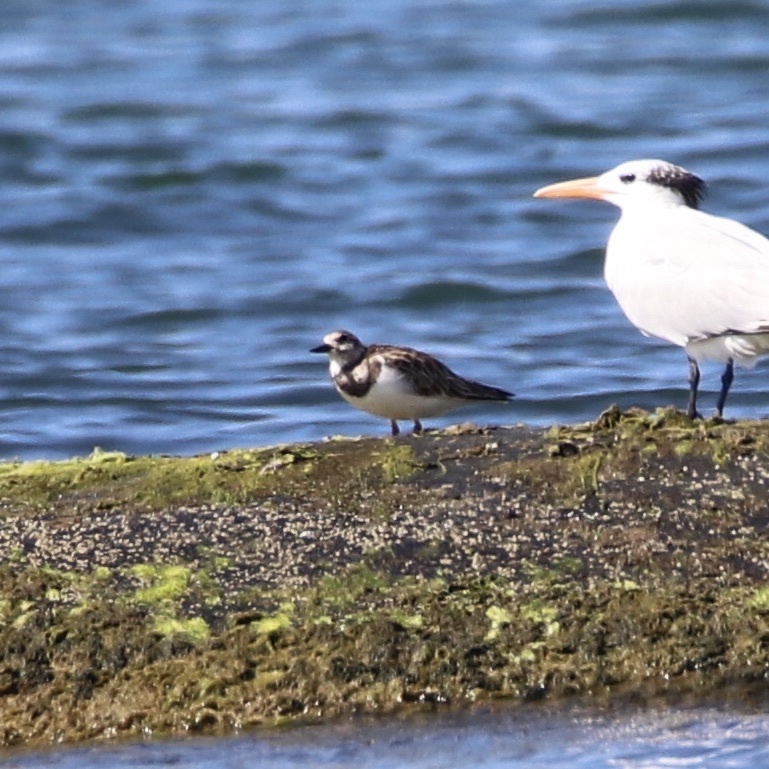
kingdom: Animalia
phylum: Chordata
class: Aves
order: Charadriiformes
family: Scolopacidae
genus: Arenaria
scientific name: Arenaria interpres
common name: Ruddy turnstone
